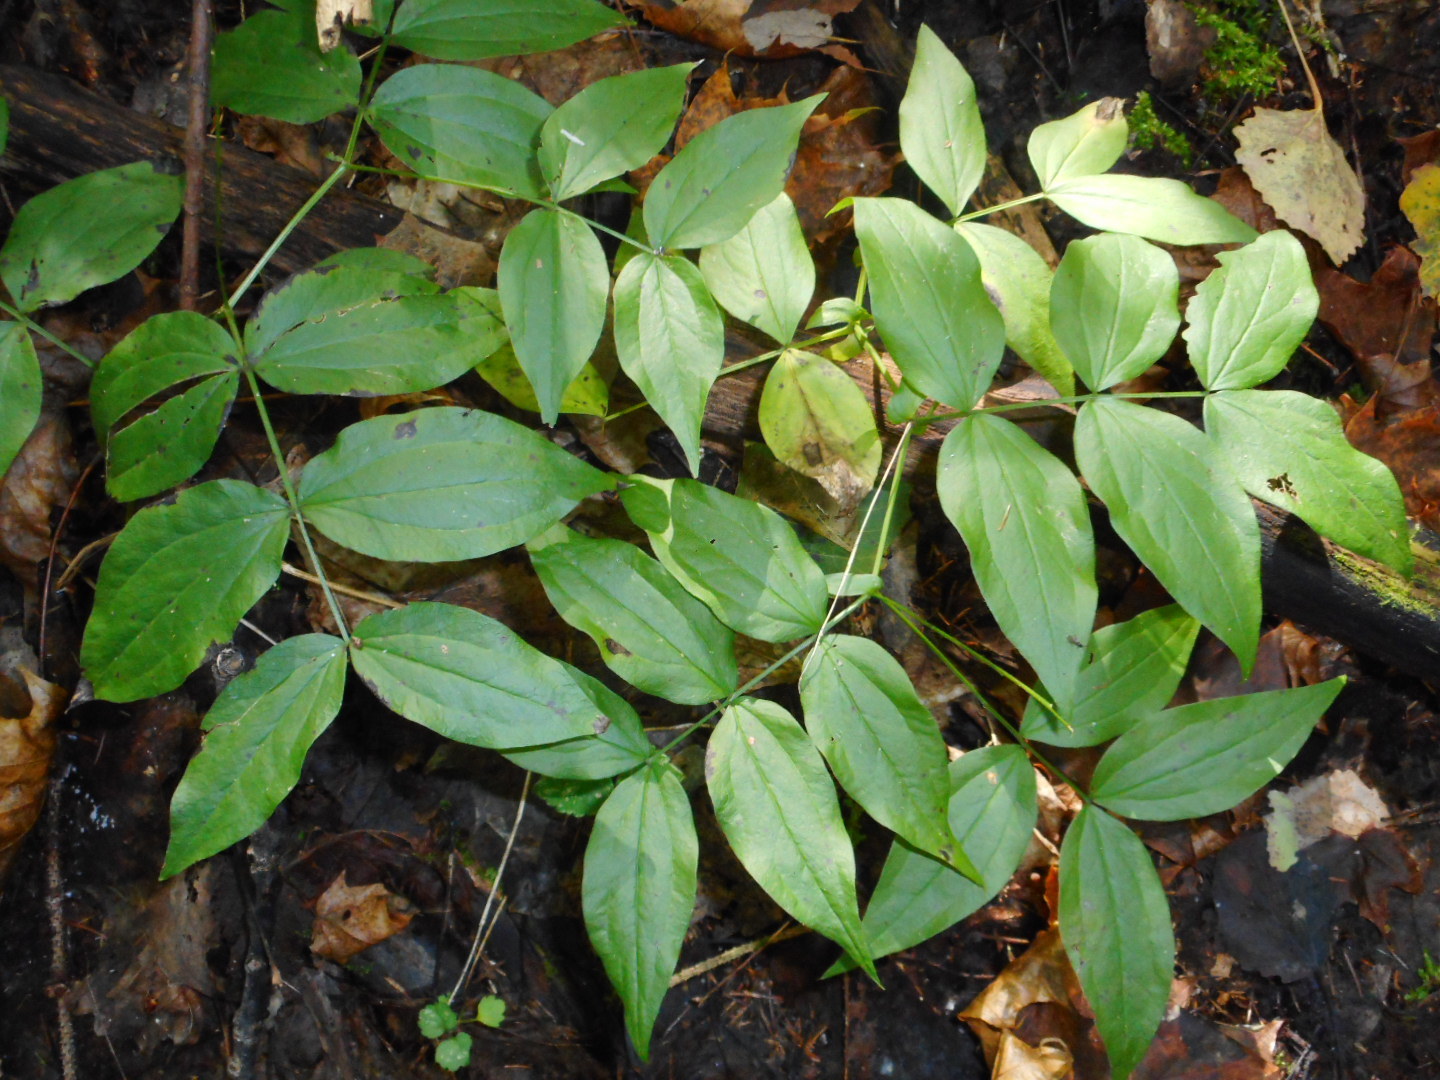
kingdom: Plantae
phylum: Tracheophyta
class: Magnoliopsida
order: Fabales
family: Fabaceae
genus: Lathyrus
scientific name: Lathyrus vernus
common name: Spring pea
